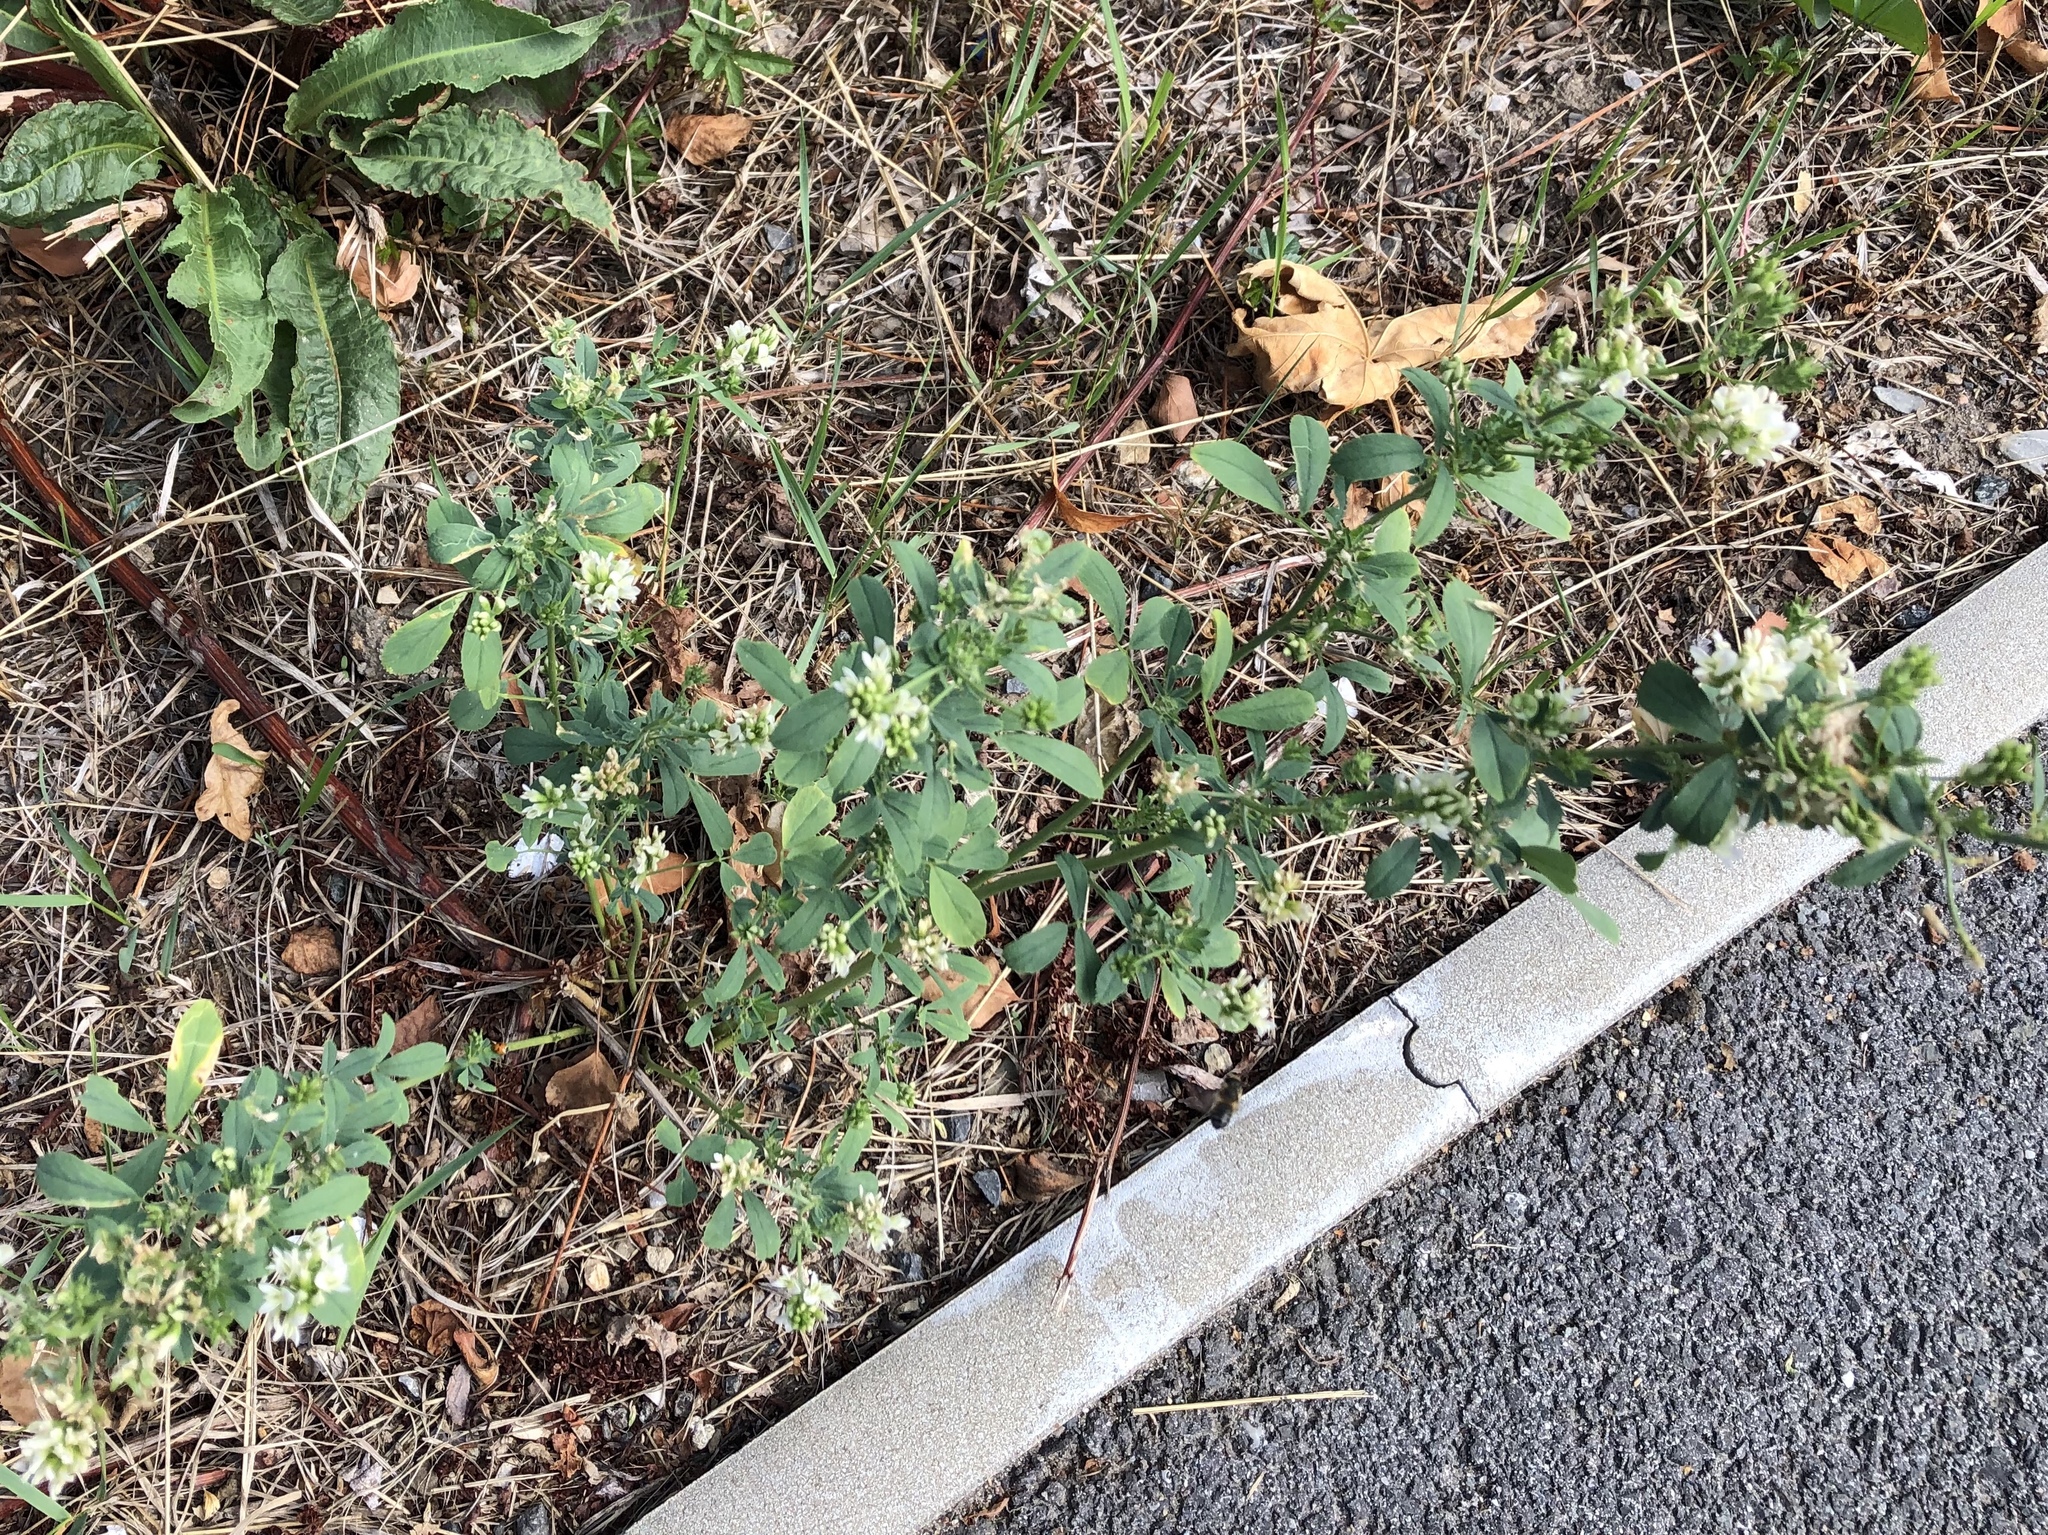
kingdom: Plantae
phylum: Tracheophyta
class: Magnoliopsida
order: Fabales
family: Fabaceae
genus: Medicago
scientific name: Medicago sativa
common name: Alfalfa
